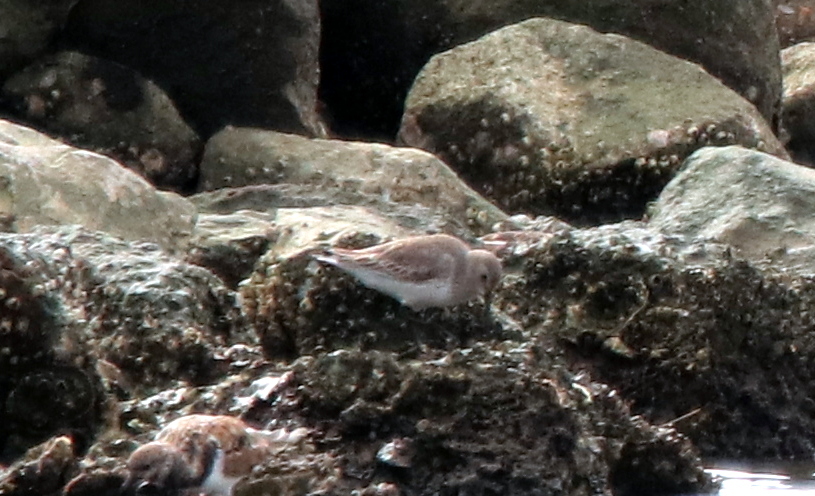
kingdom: Animalia
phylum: Chordata
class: Aves
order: Charadriiformes
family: Scolopacidae
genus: Calidris
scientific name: Calidris alpina
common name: Dunlin
